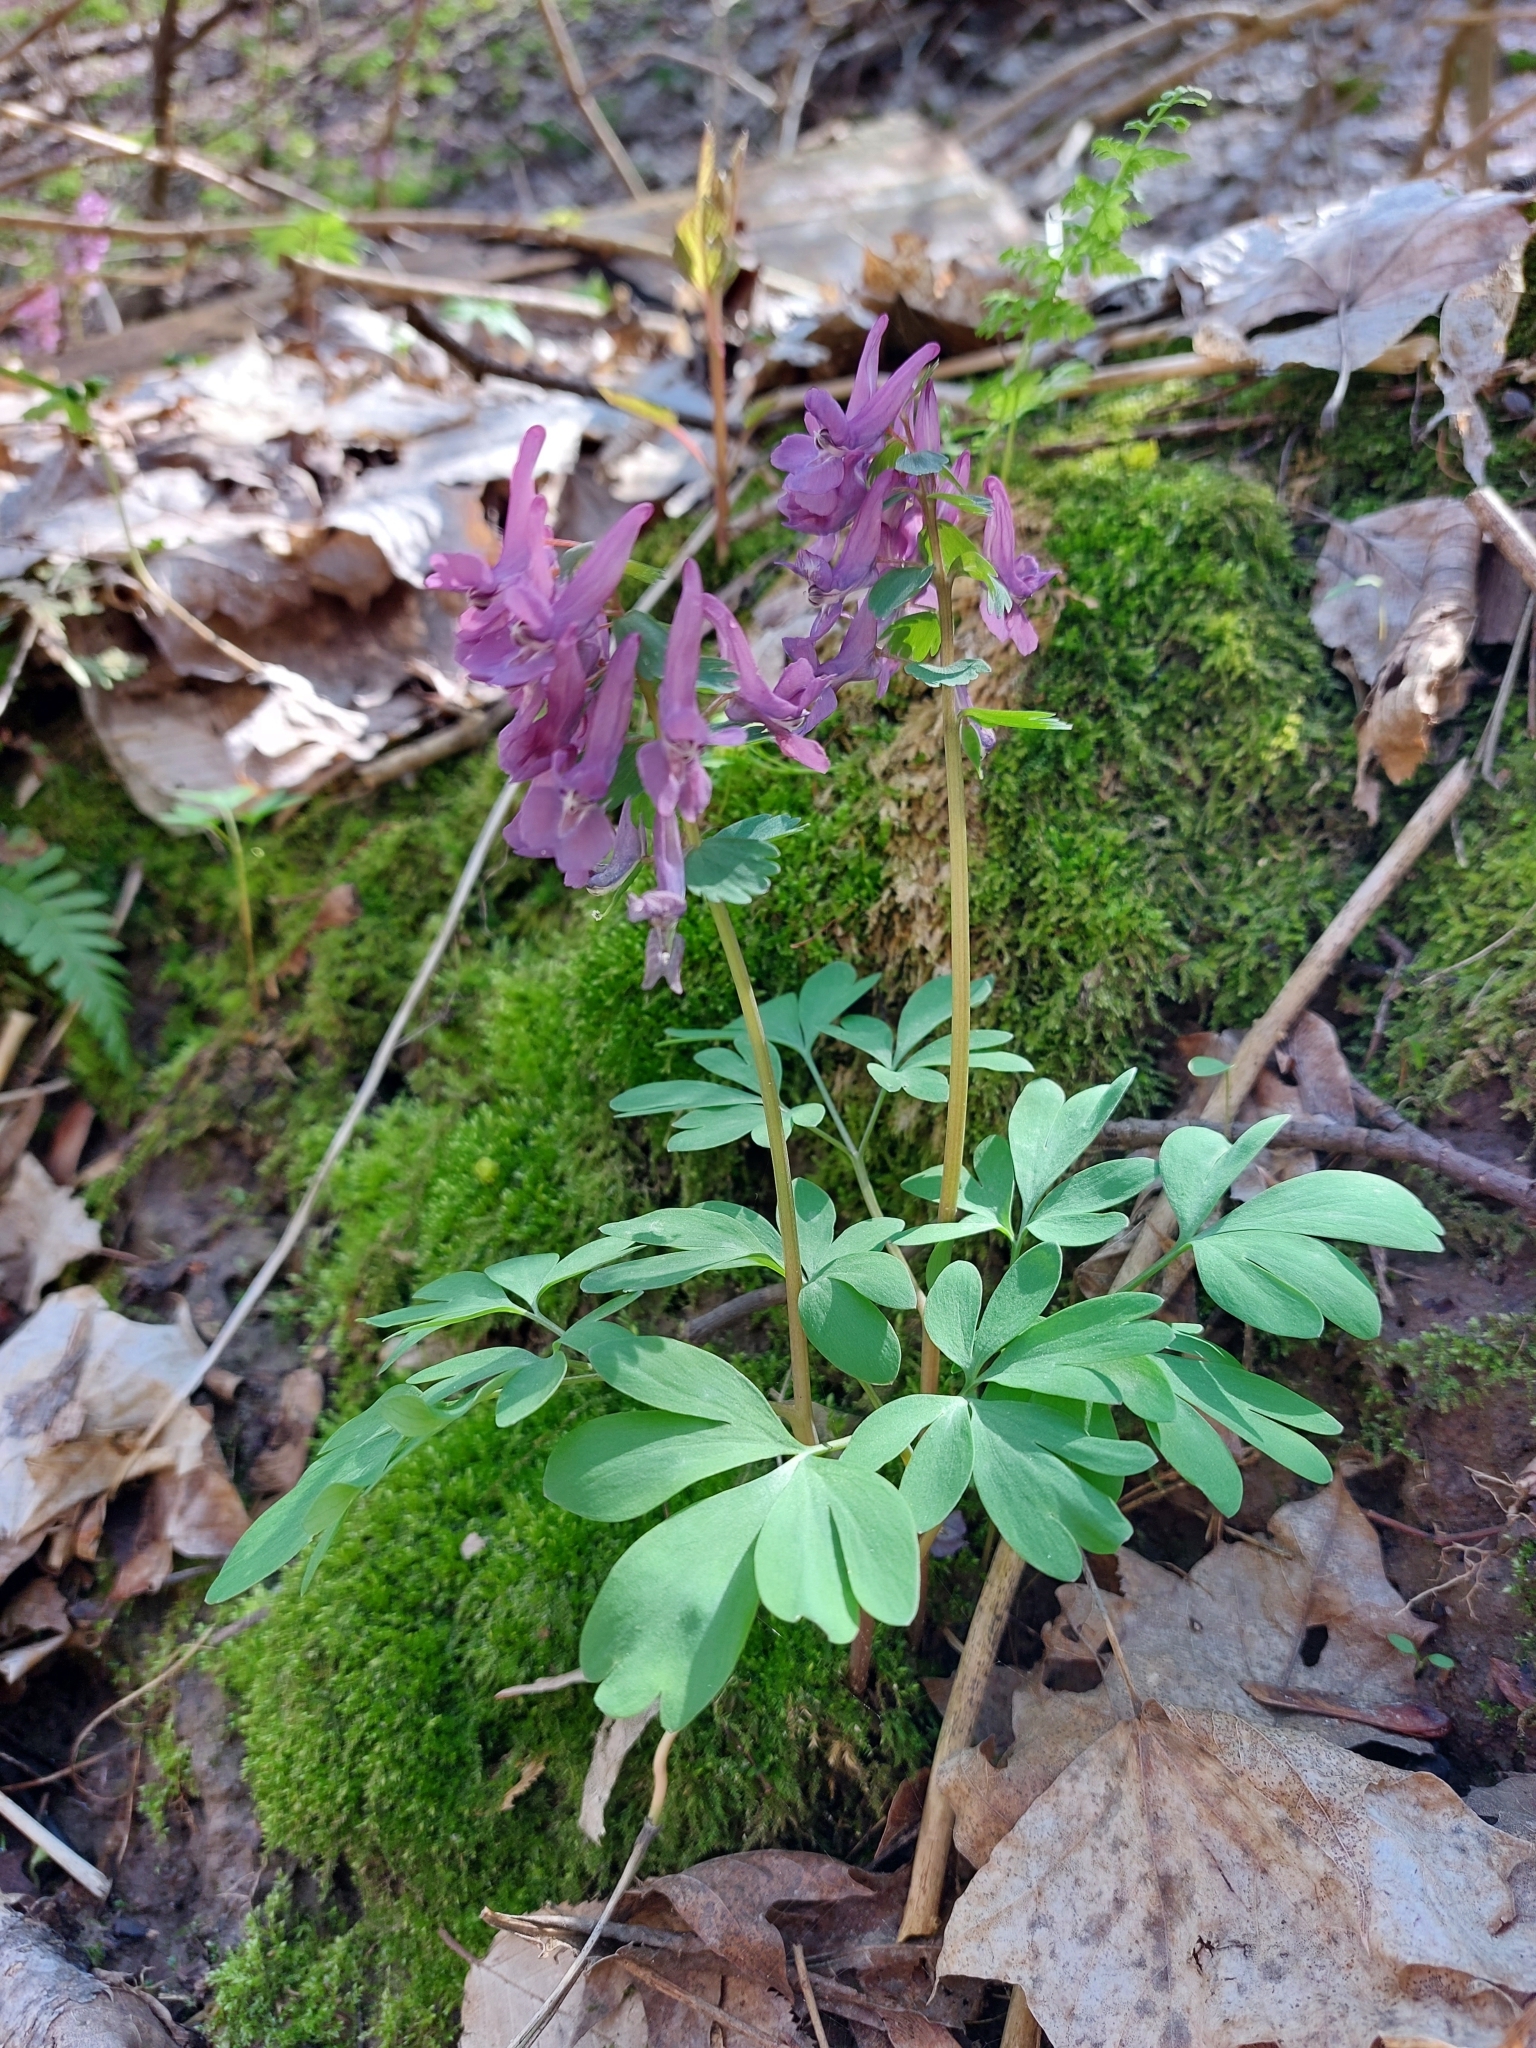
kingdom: Plantae
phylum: Tracheophyta
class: Magnoliopsida
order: Ranunculales
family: Papaveraceae
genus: Corydalis
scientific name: Corydalis solida
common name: Bird-in-a-bush
